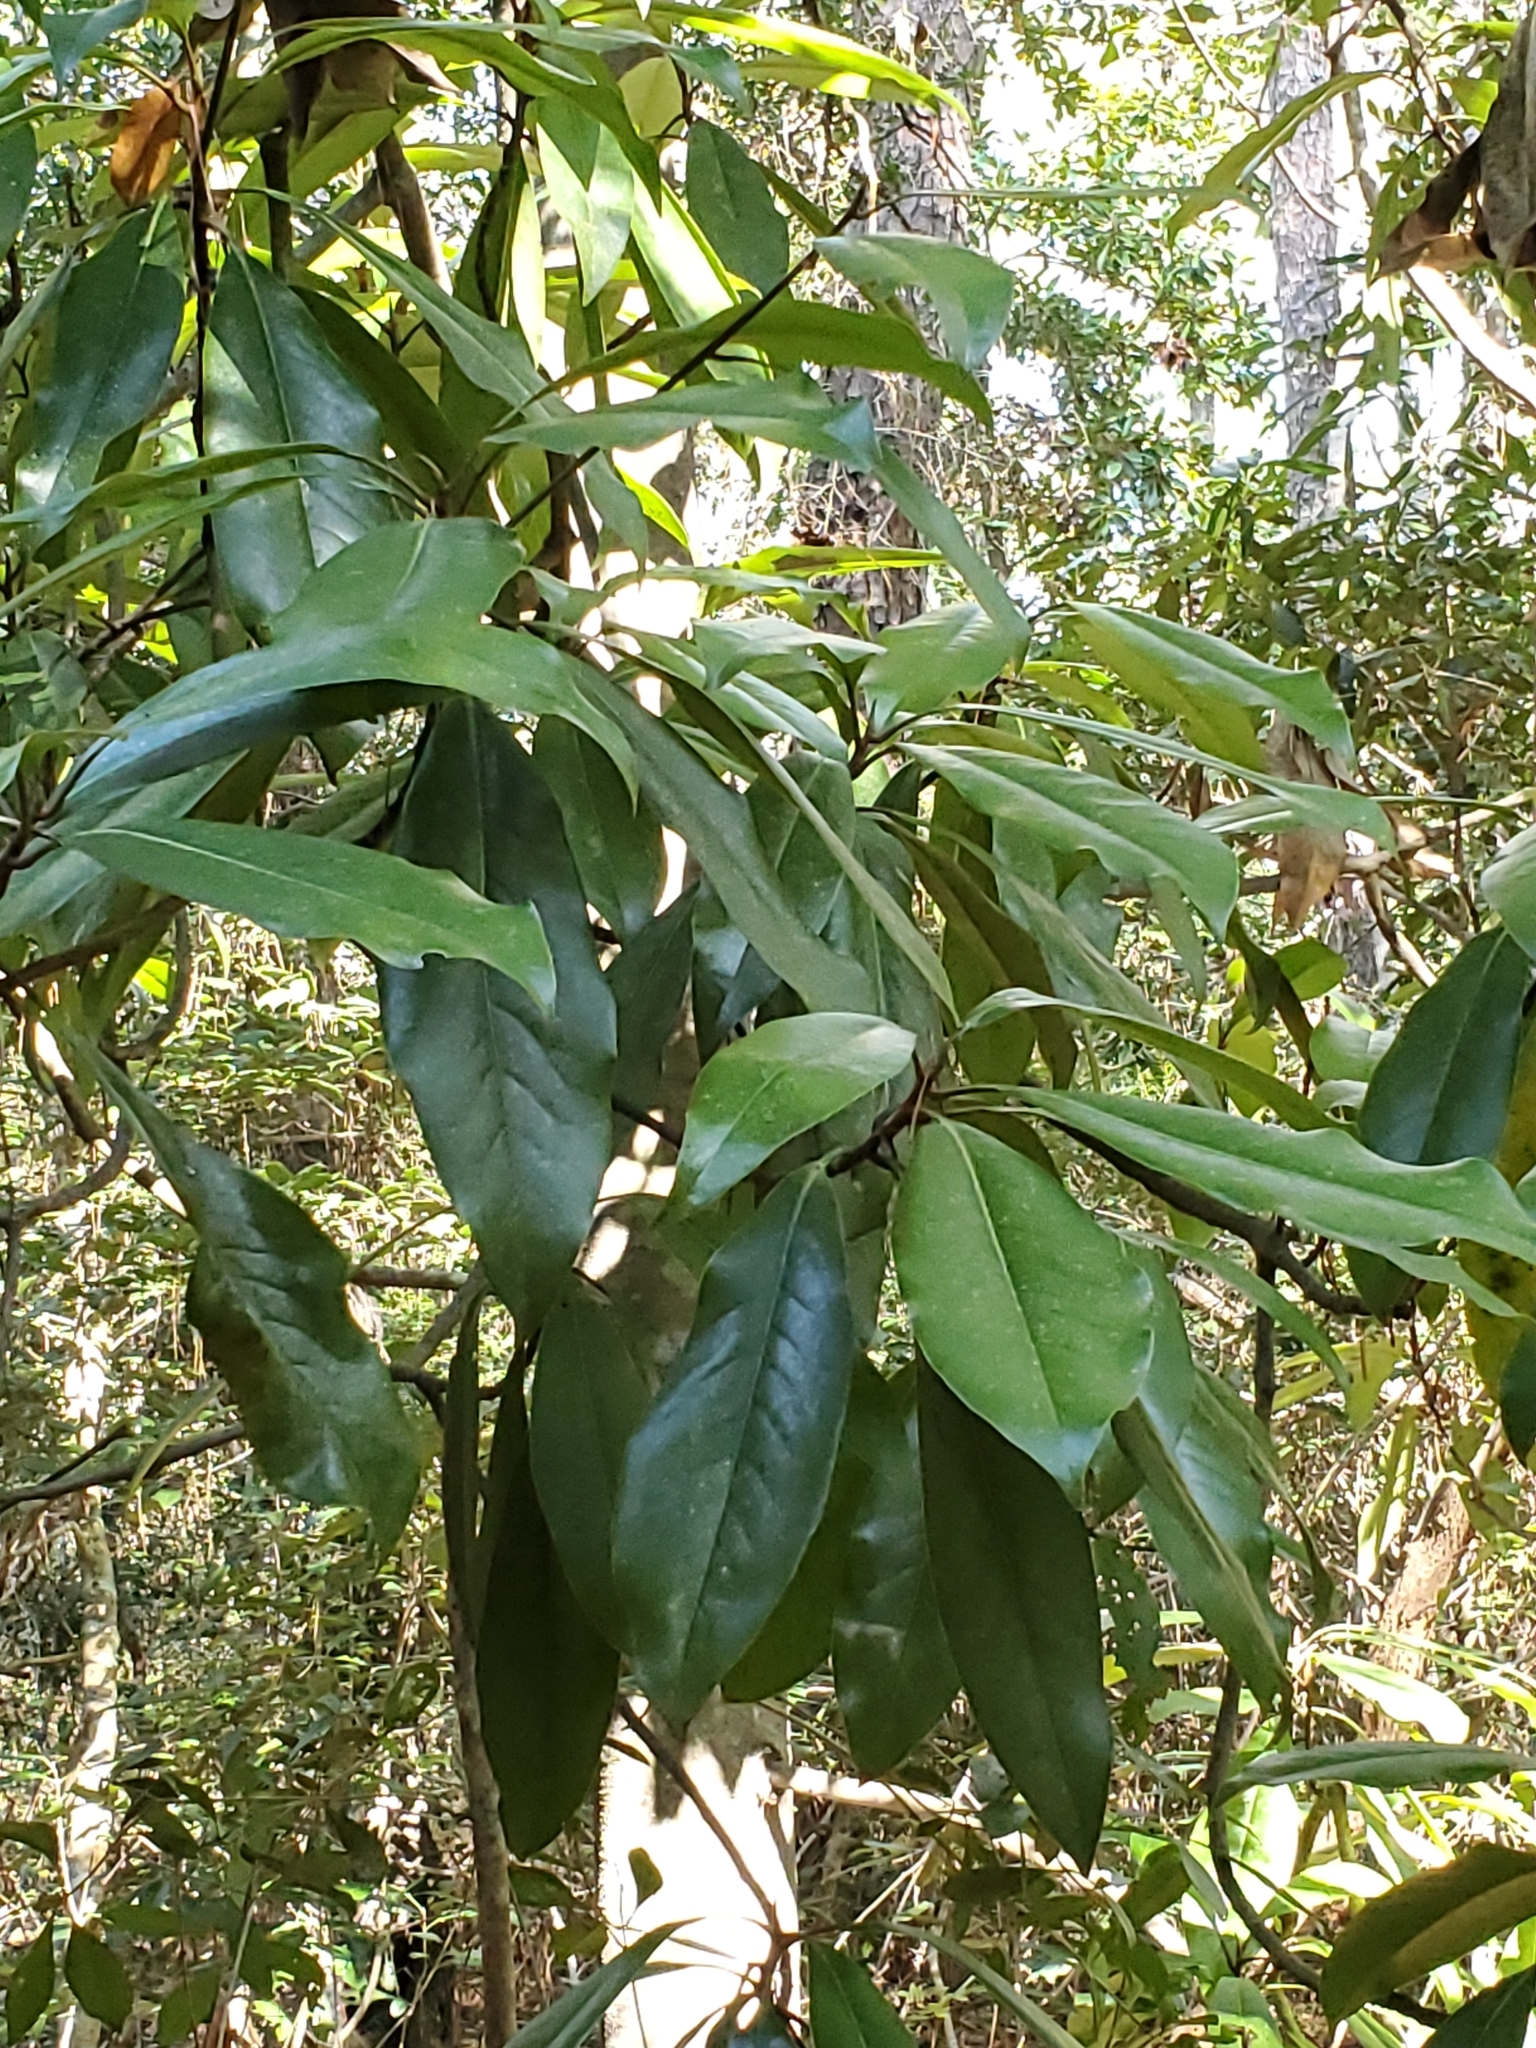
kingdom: Plantae
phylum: Tracheophyta
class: Magnoliopsida
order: Magnoliales
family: Magnoliaceae
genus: Magnolia
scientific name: Magnolia grandiflora
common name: Southern magnolia
